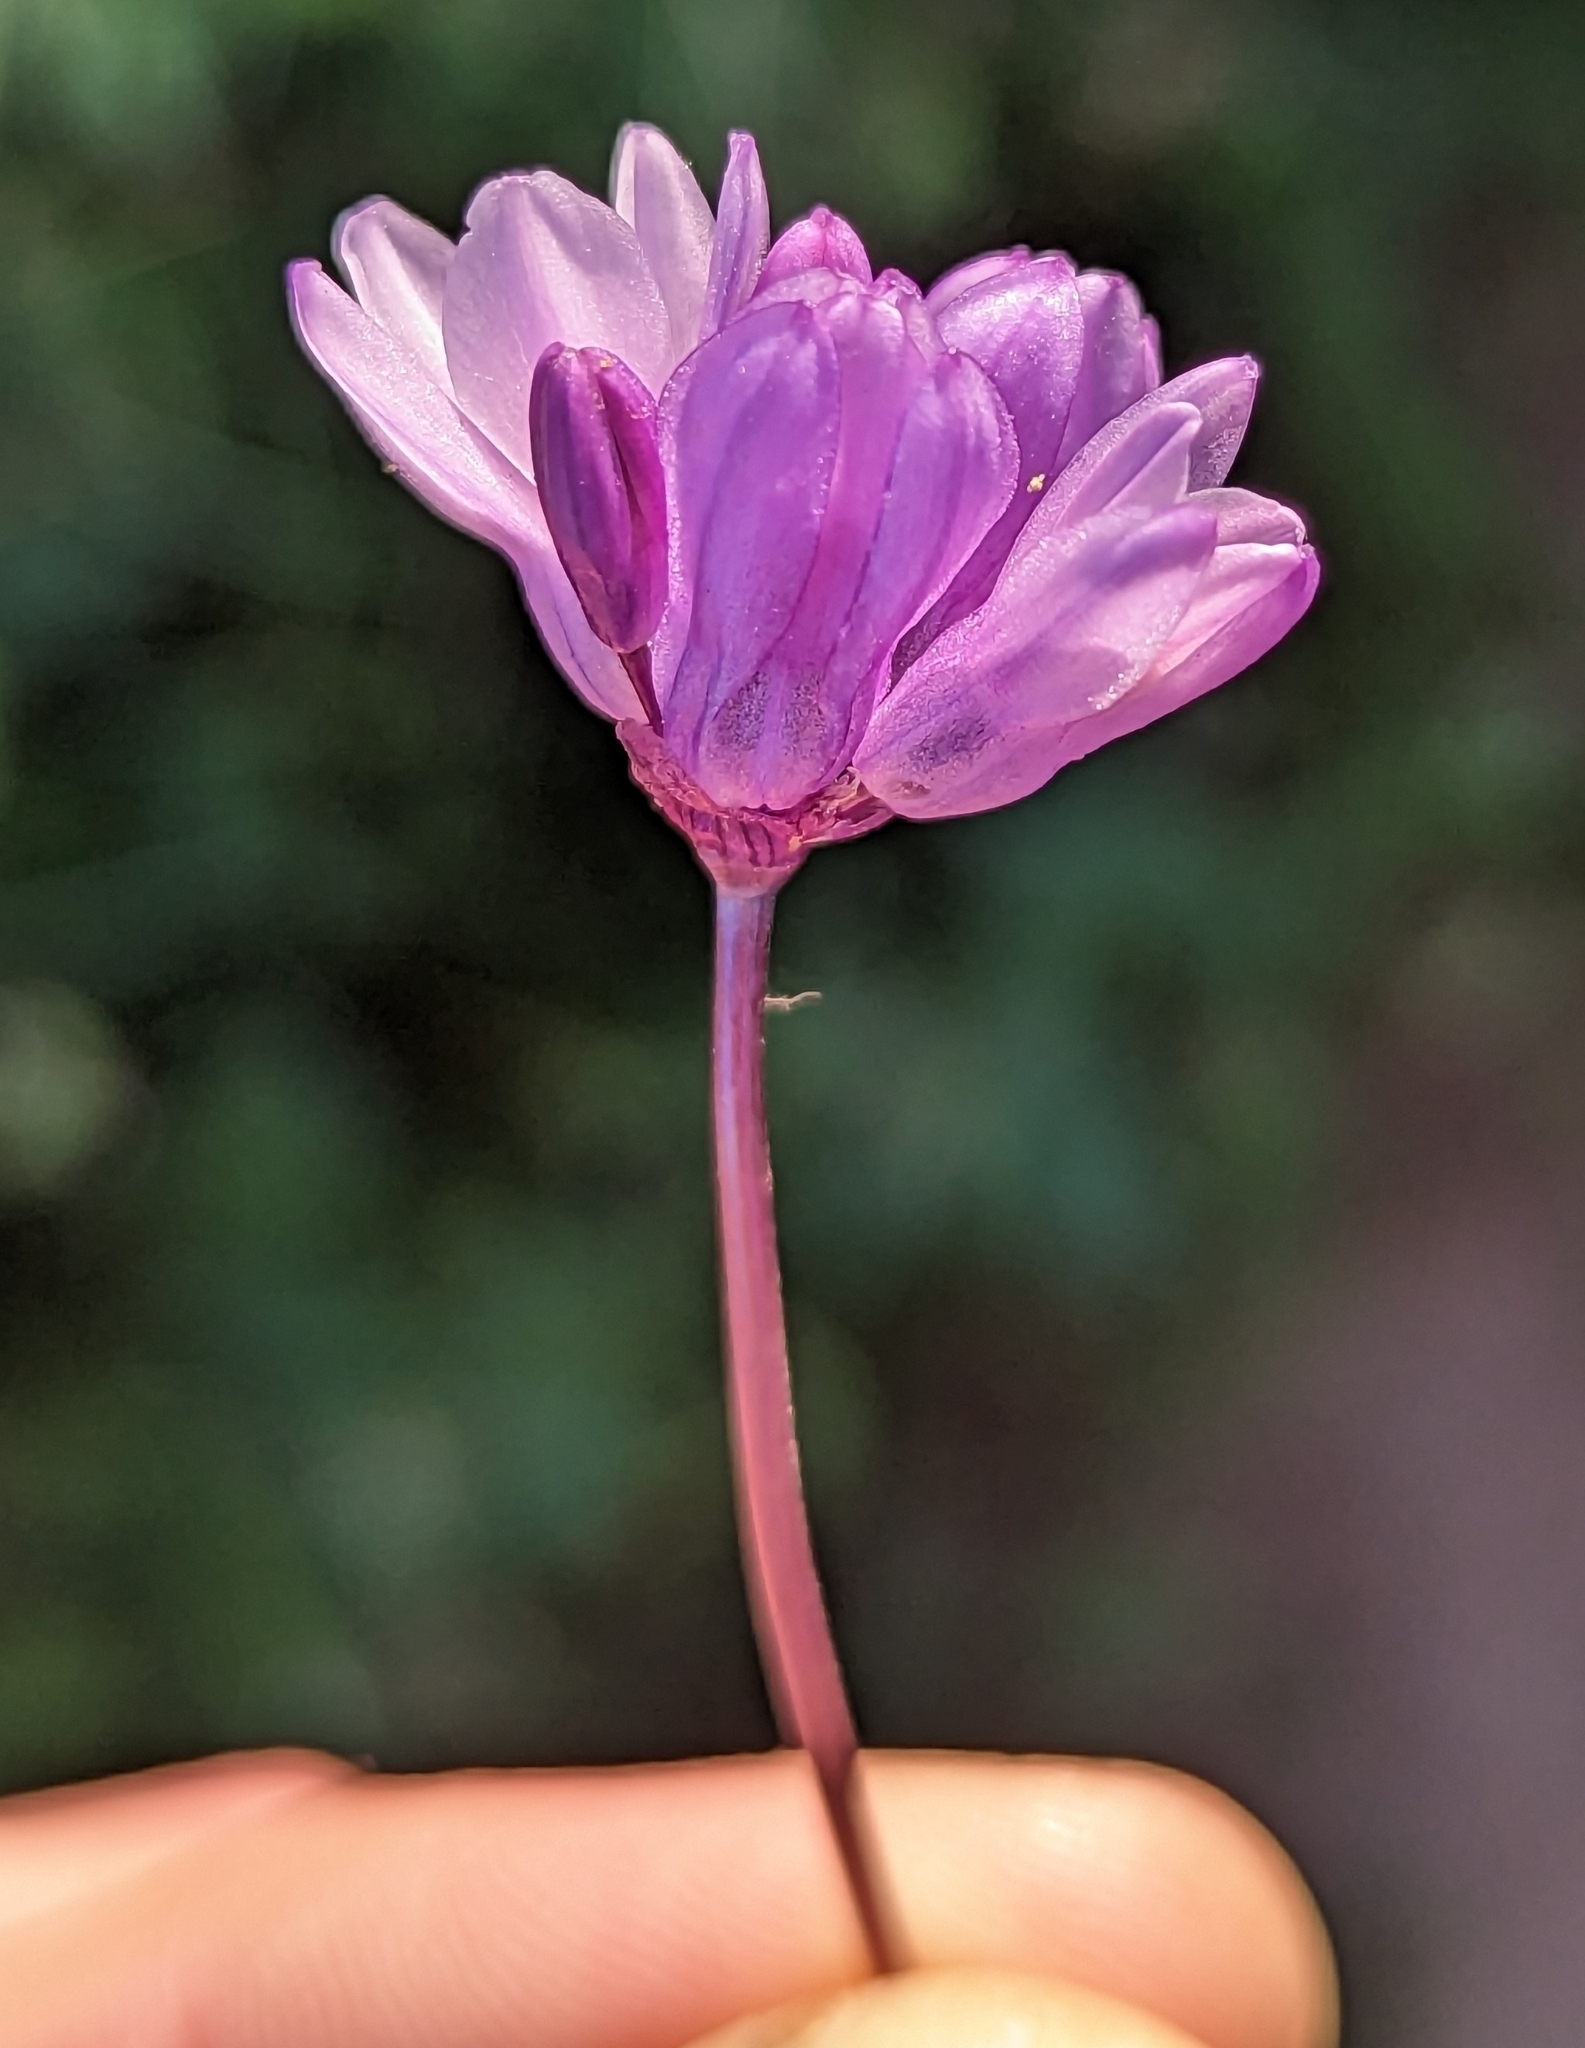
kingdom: Plantae
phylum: Tracheophyta
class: Liliopsida
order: Asparagales
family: Asparagaceae
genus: Dipterostemon
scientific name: Dipterostemon capitatus
